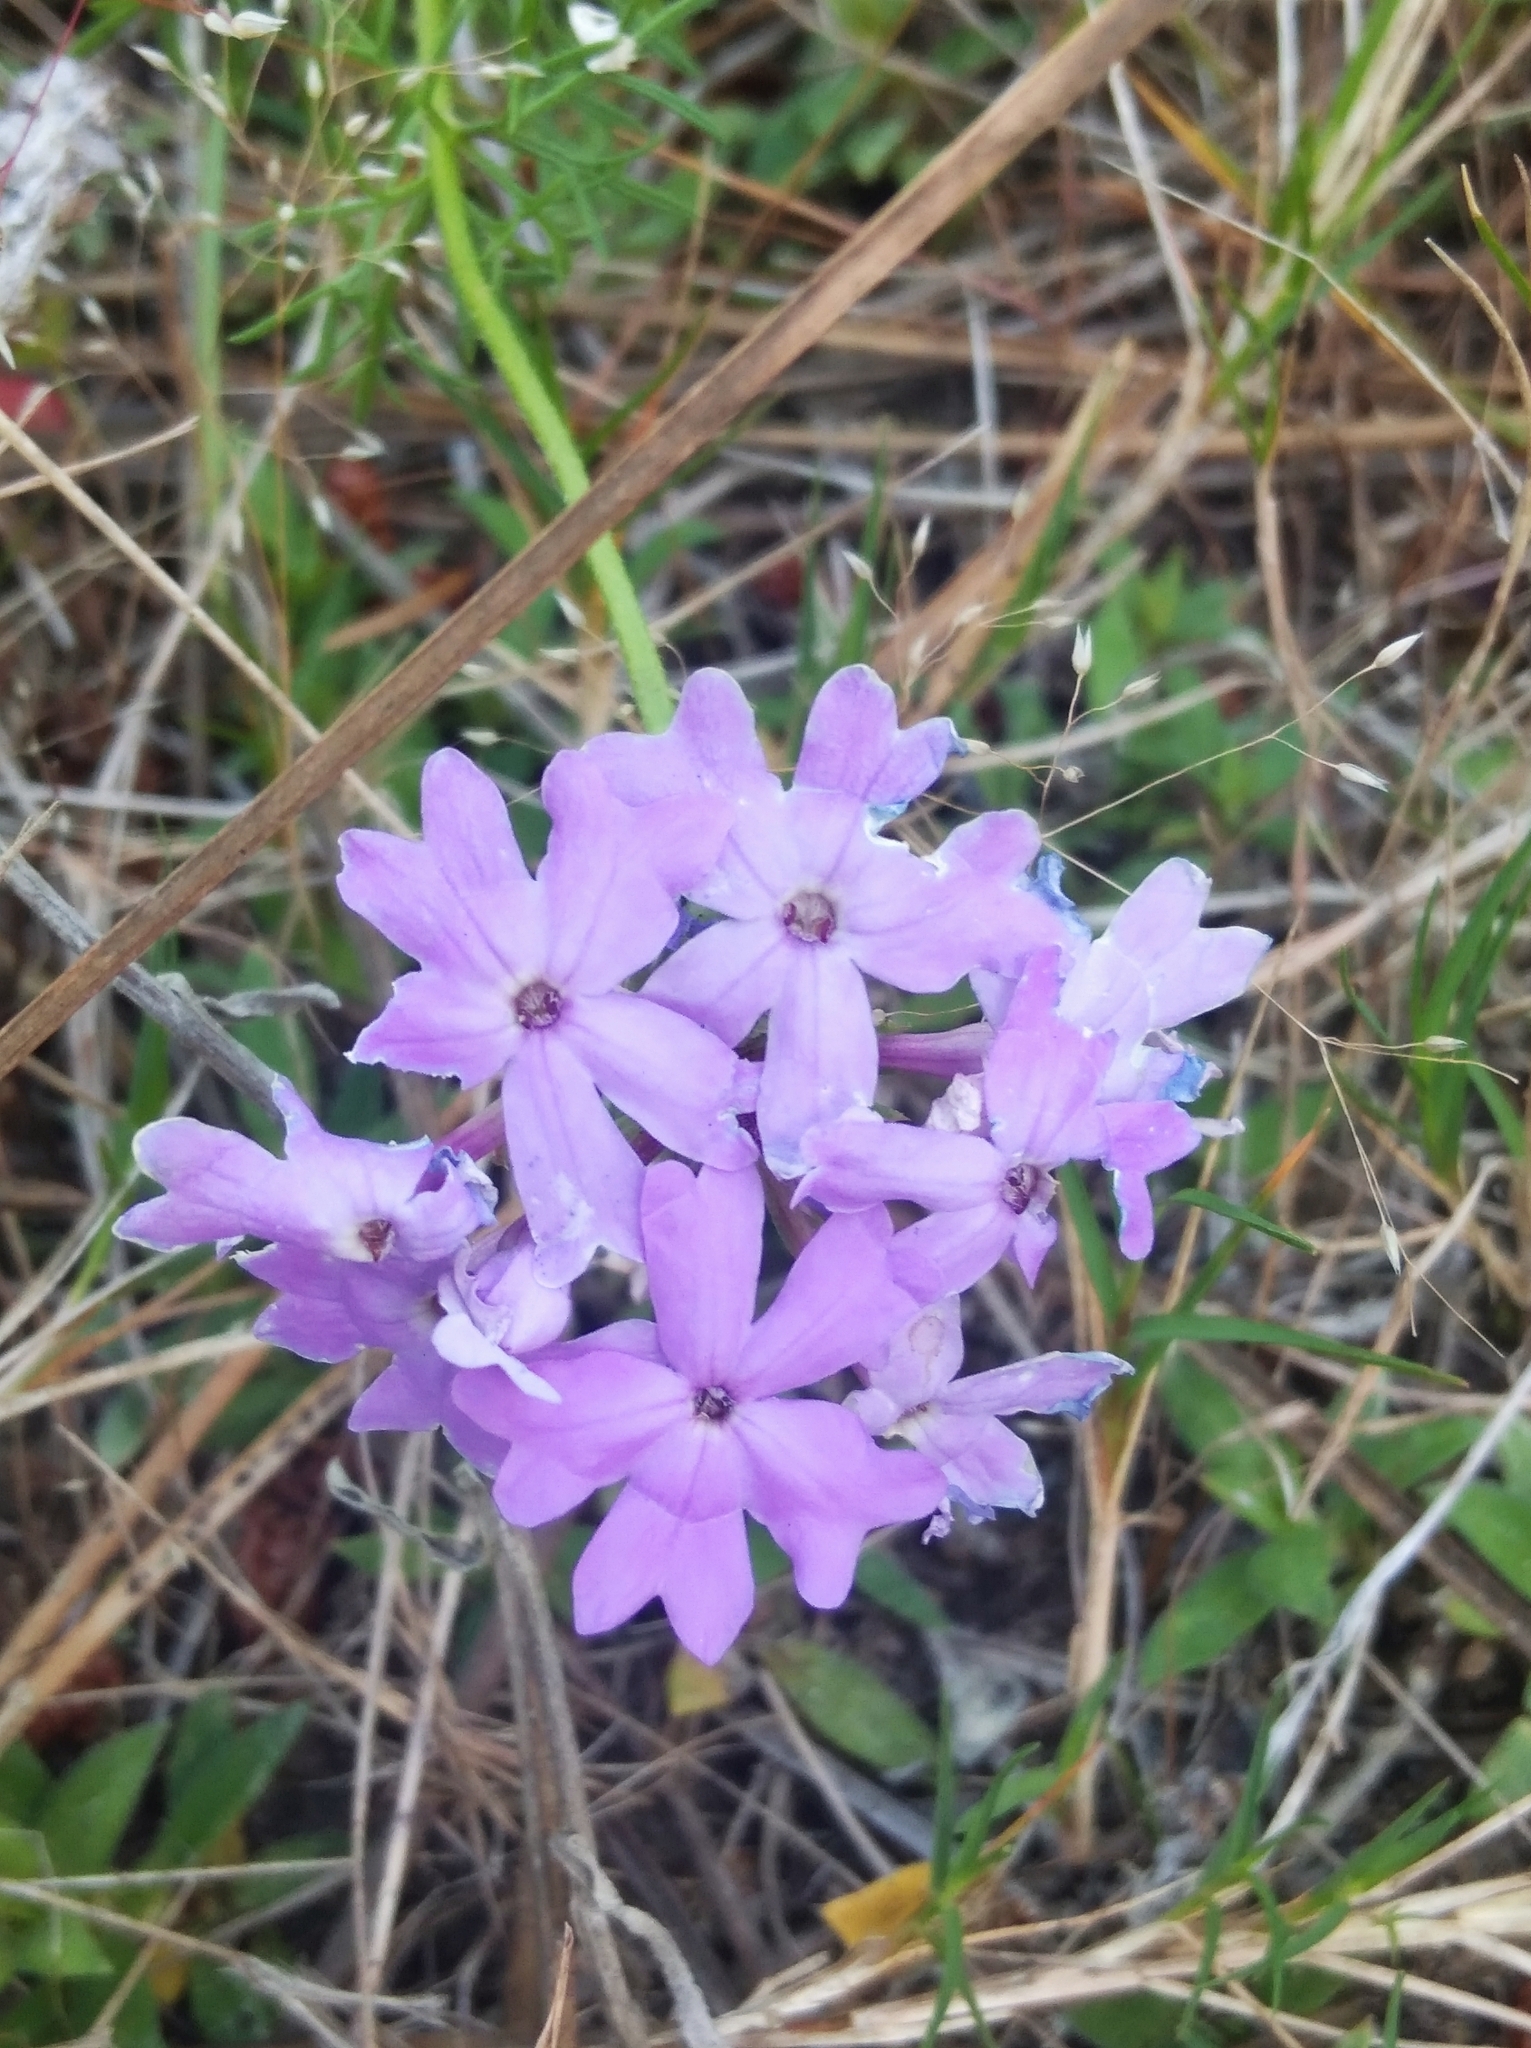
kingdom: Plantae
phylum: Tracheophyta
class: Magnoliopsida
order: Lamiales
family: Verbenaceae
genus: Verbena
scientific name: Verbena selloi
